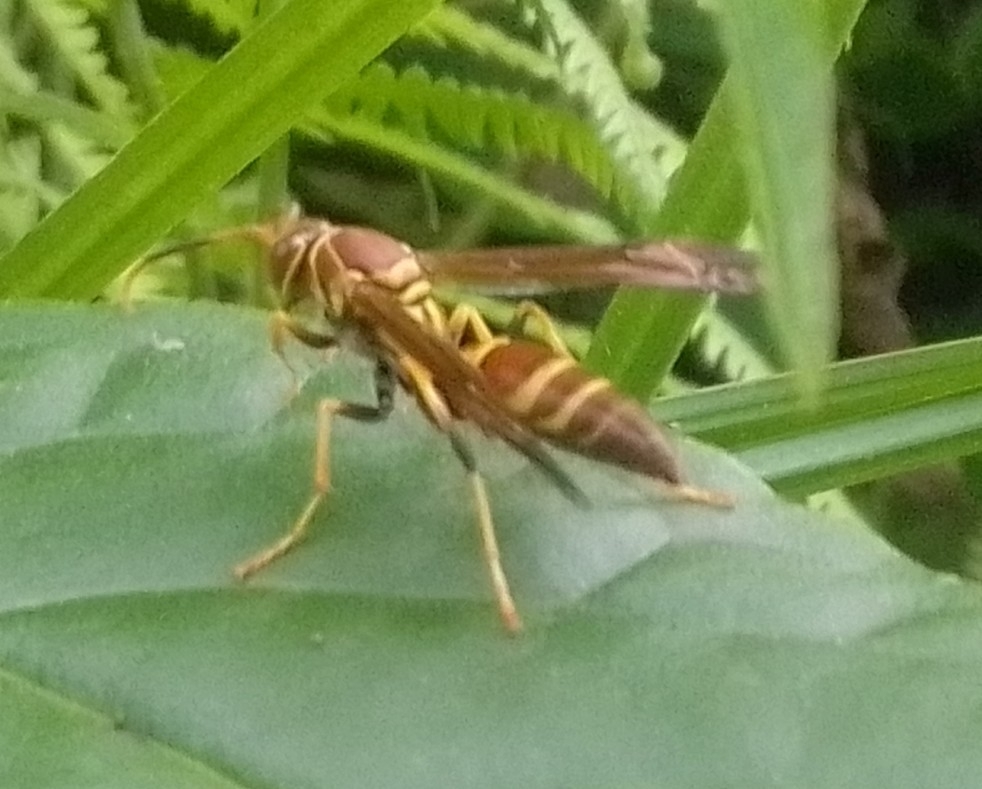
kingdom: Animalia
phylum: Arthropoda
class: Insecta
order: Hymenoptera
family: Eumenidae
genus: Polistes
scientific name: Polistes instabilis
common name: Unstable paper wasp
